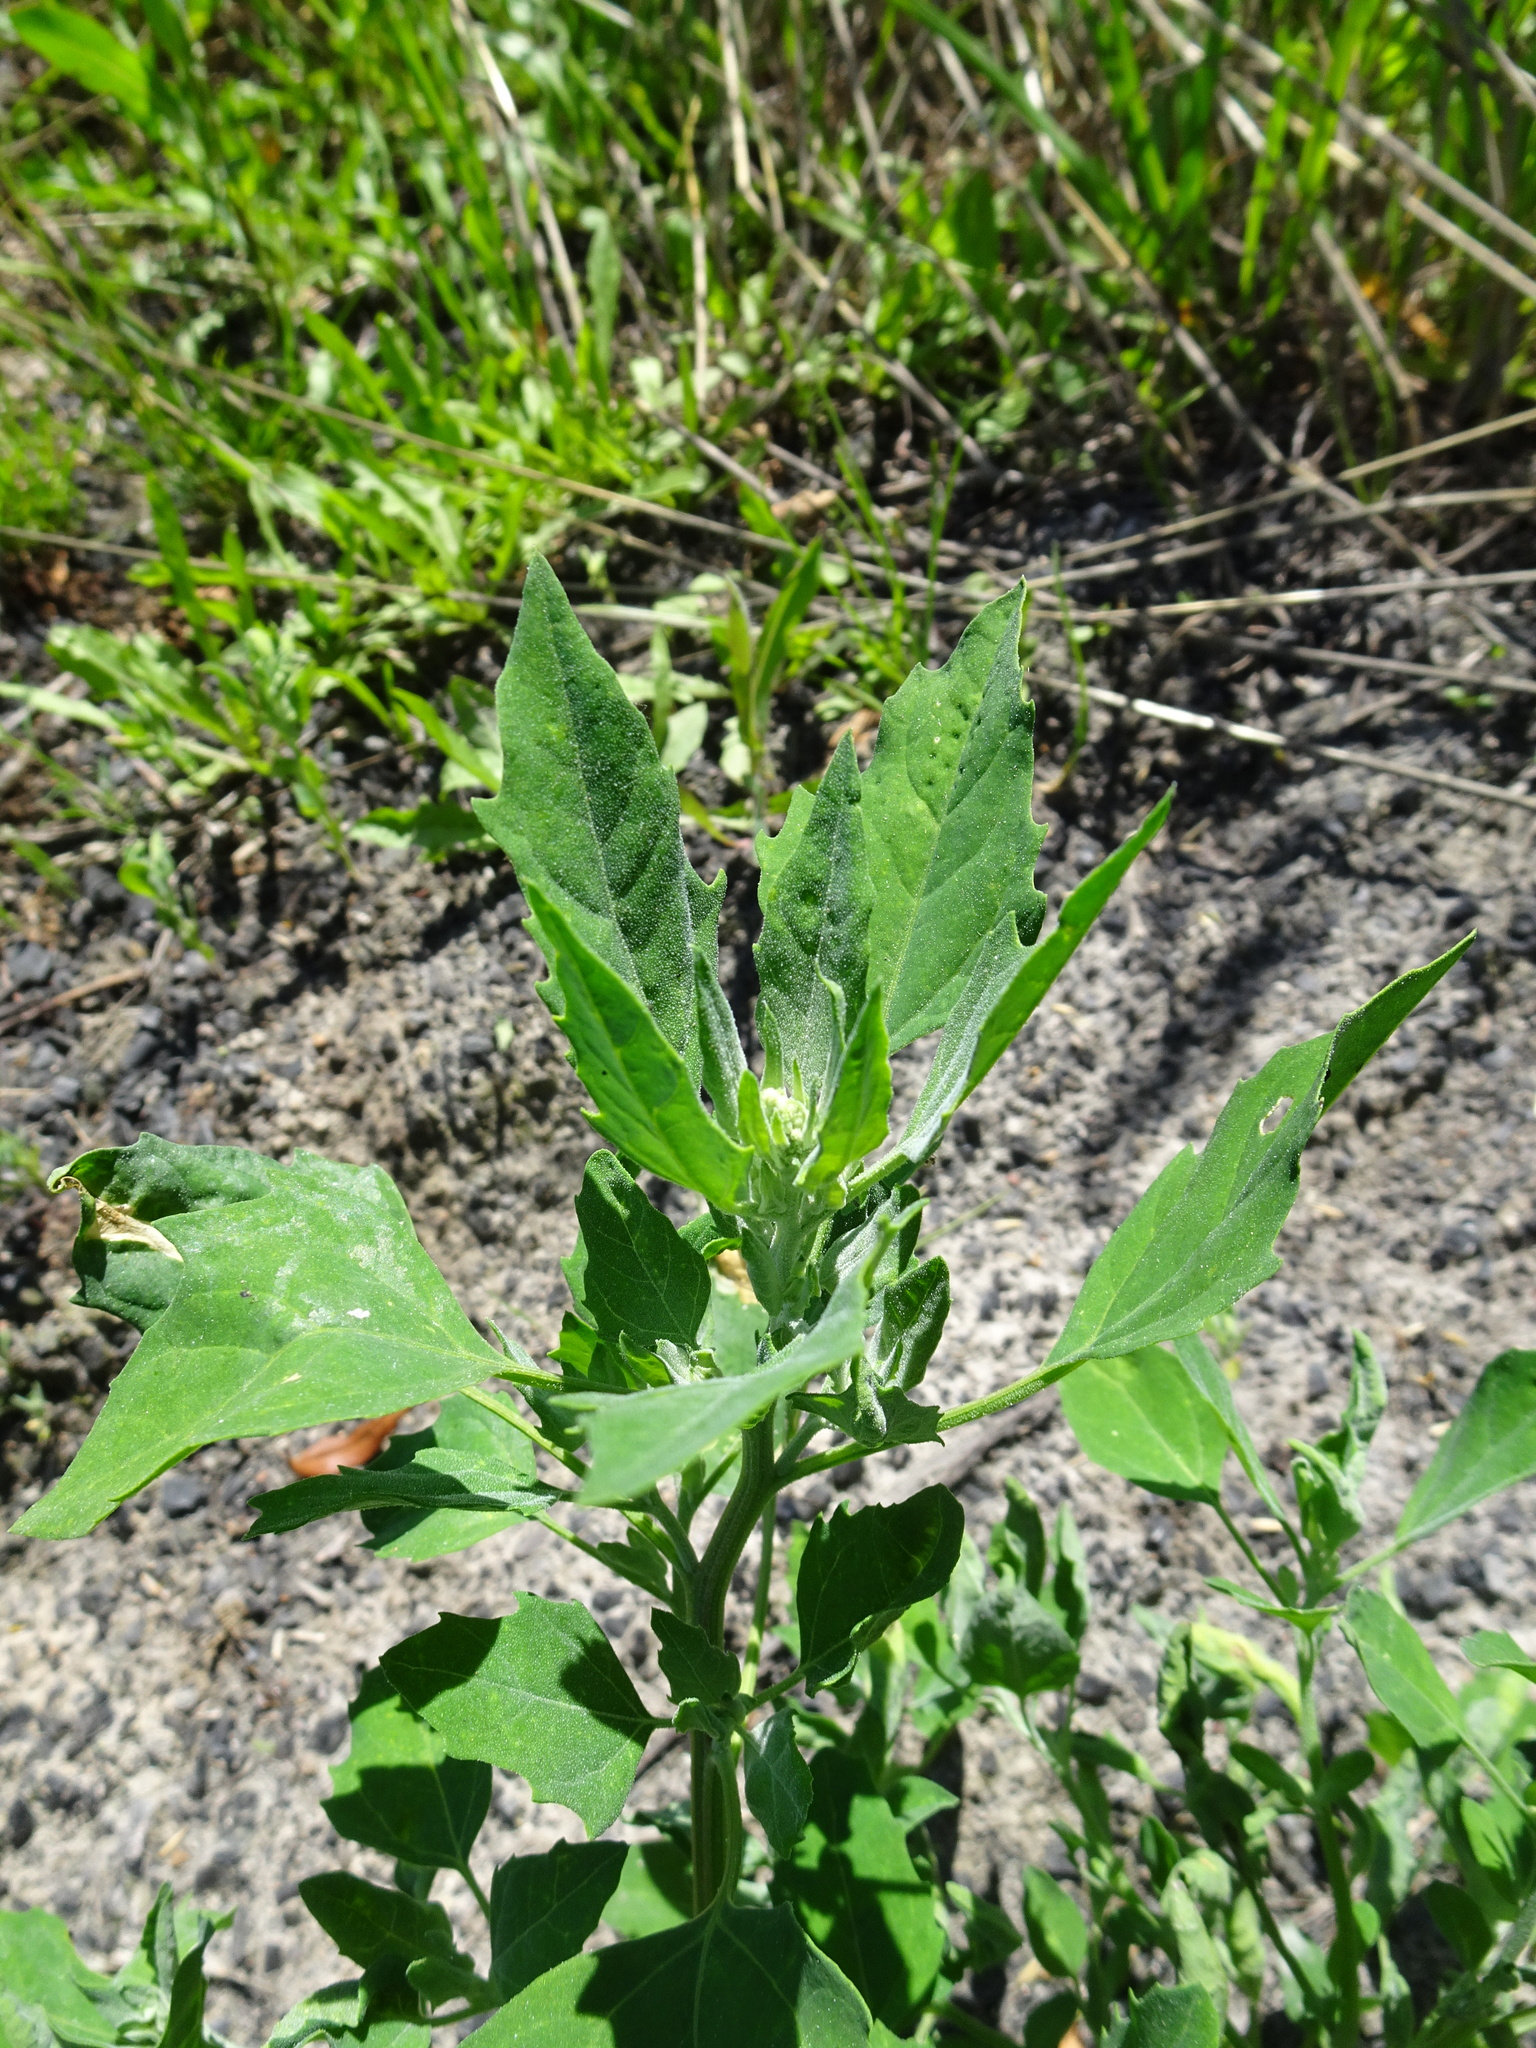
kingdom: Plantae
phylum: Tracheophyta
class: Magnoliopsida
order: Caryophyllales
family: Amaranthaceae
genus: Chenopodium
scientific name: Chenopodium album
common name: Fat-hen
